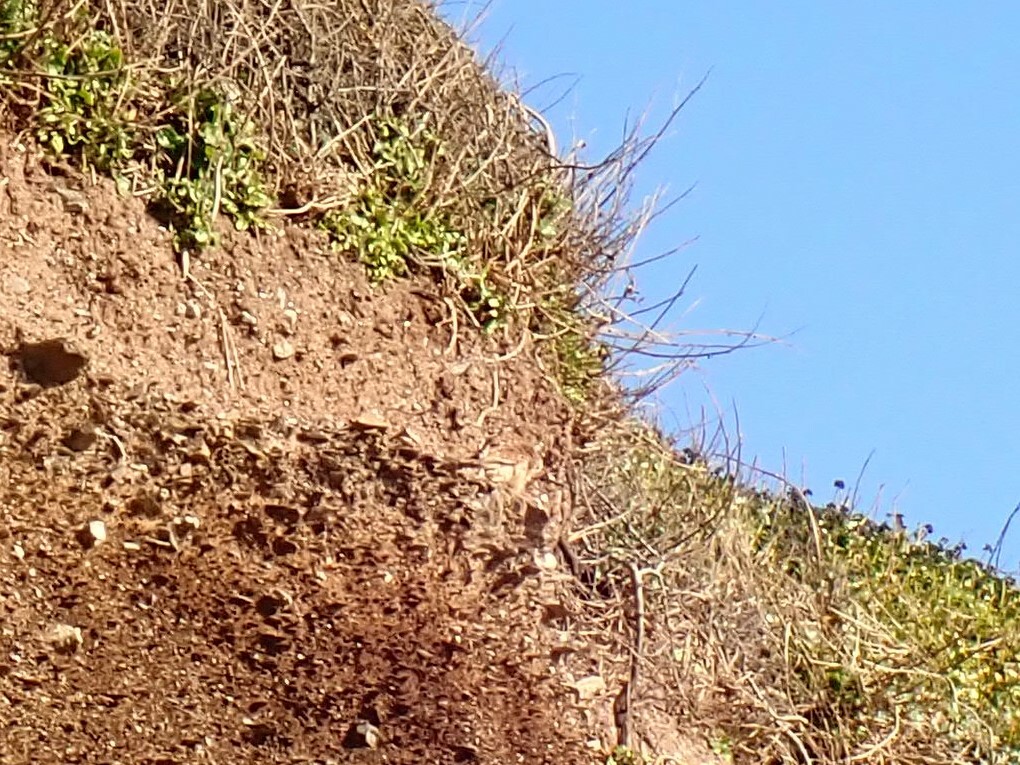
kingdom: Animalia
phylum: Chordata
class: Aves
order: Falconiformes
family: Falconidae
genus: Falco
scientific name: Falco tinnunculus
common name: Common kestrel
